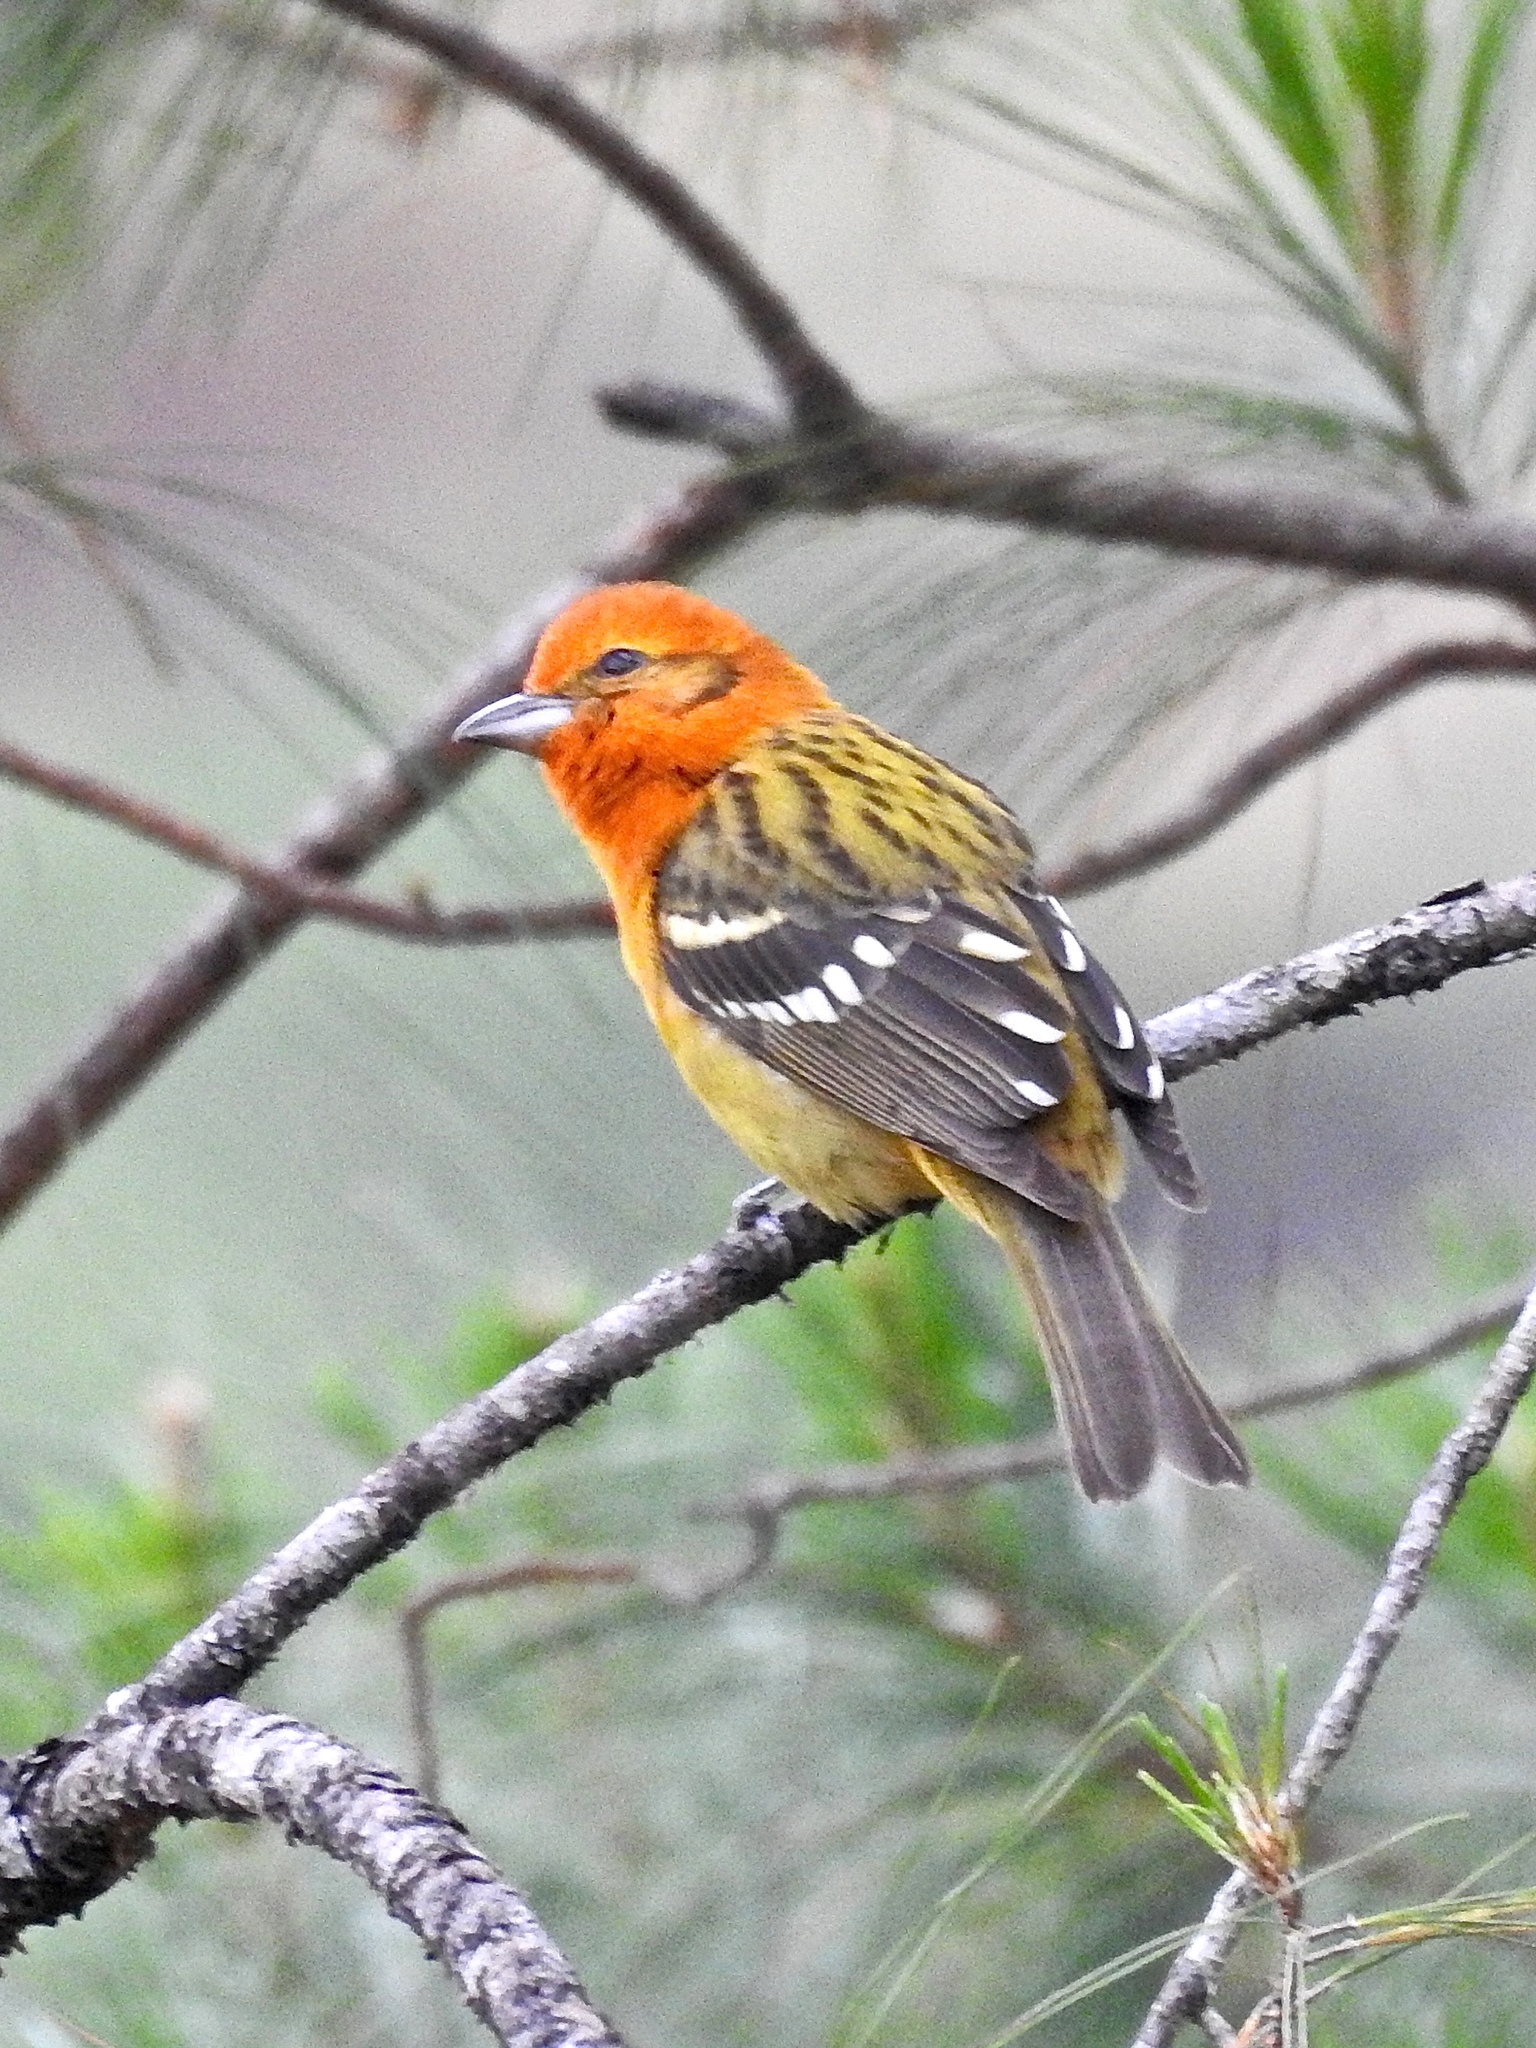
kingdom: Animalia
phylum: Chordata
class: Aves
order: Passeriformes
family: Cardinalidae
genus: Piranga
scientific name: Piranga bidentata
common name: Flame-colored tanager
